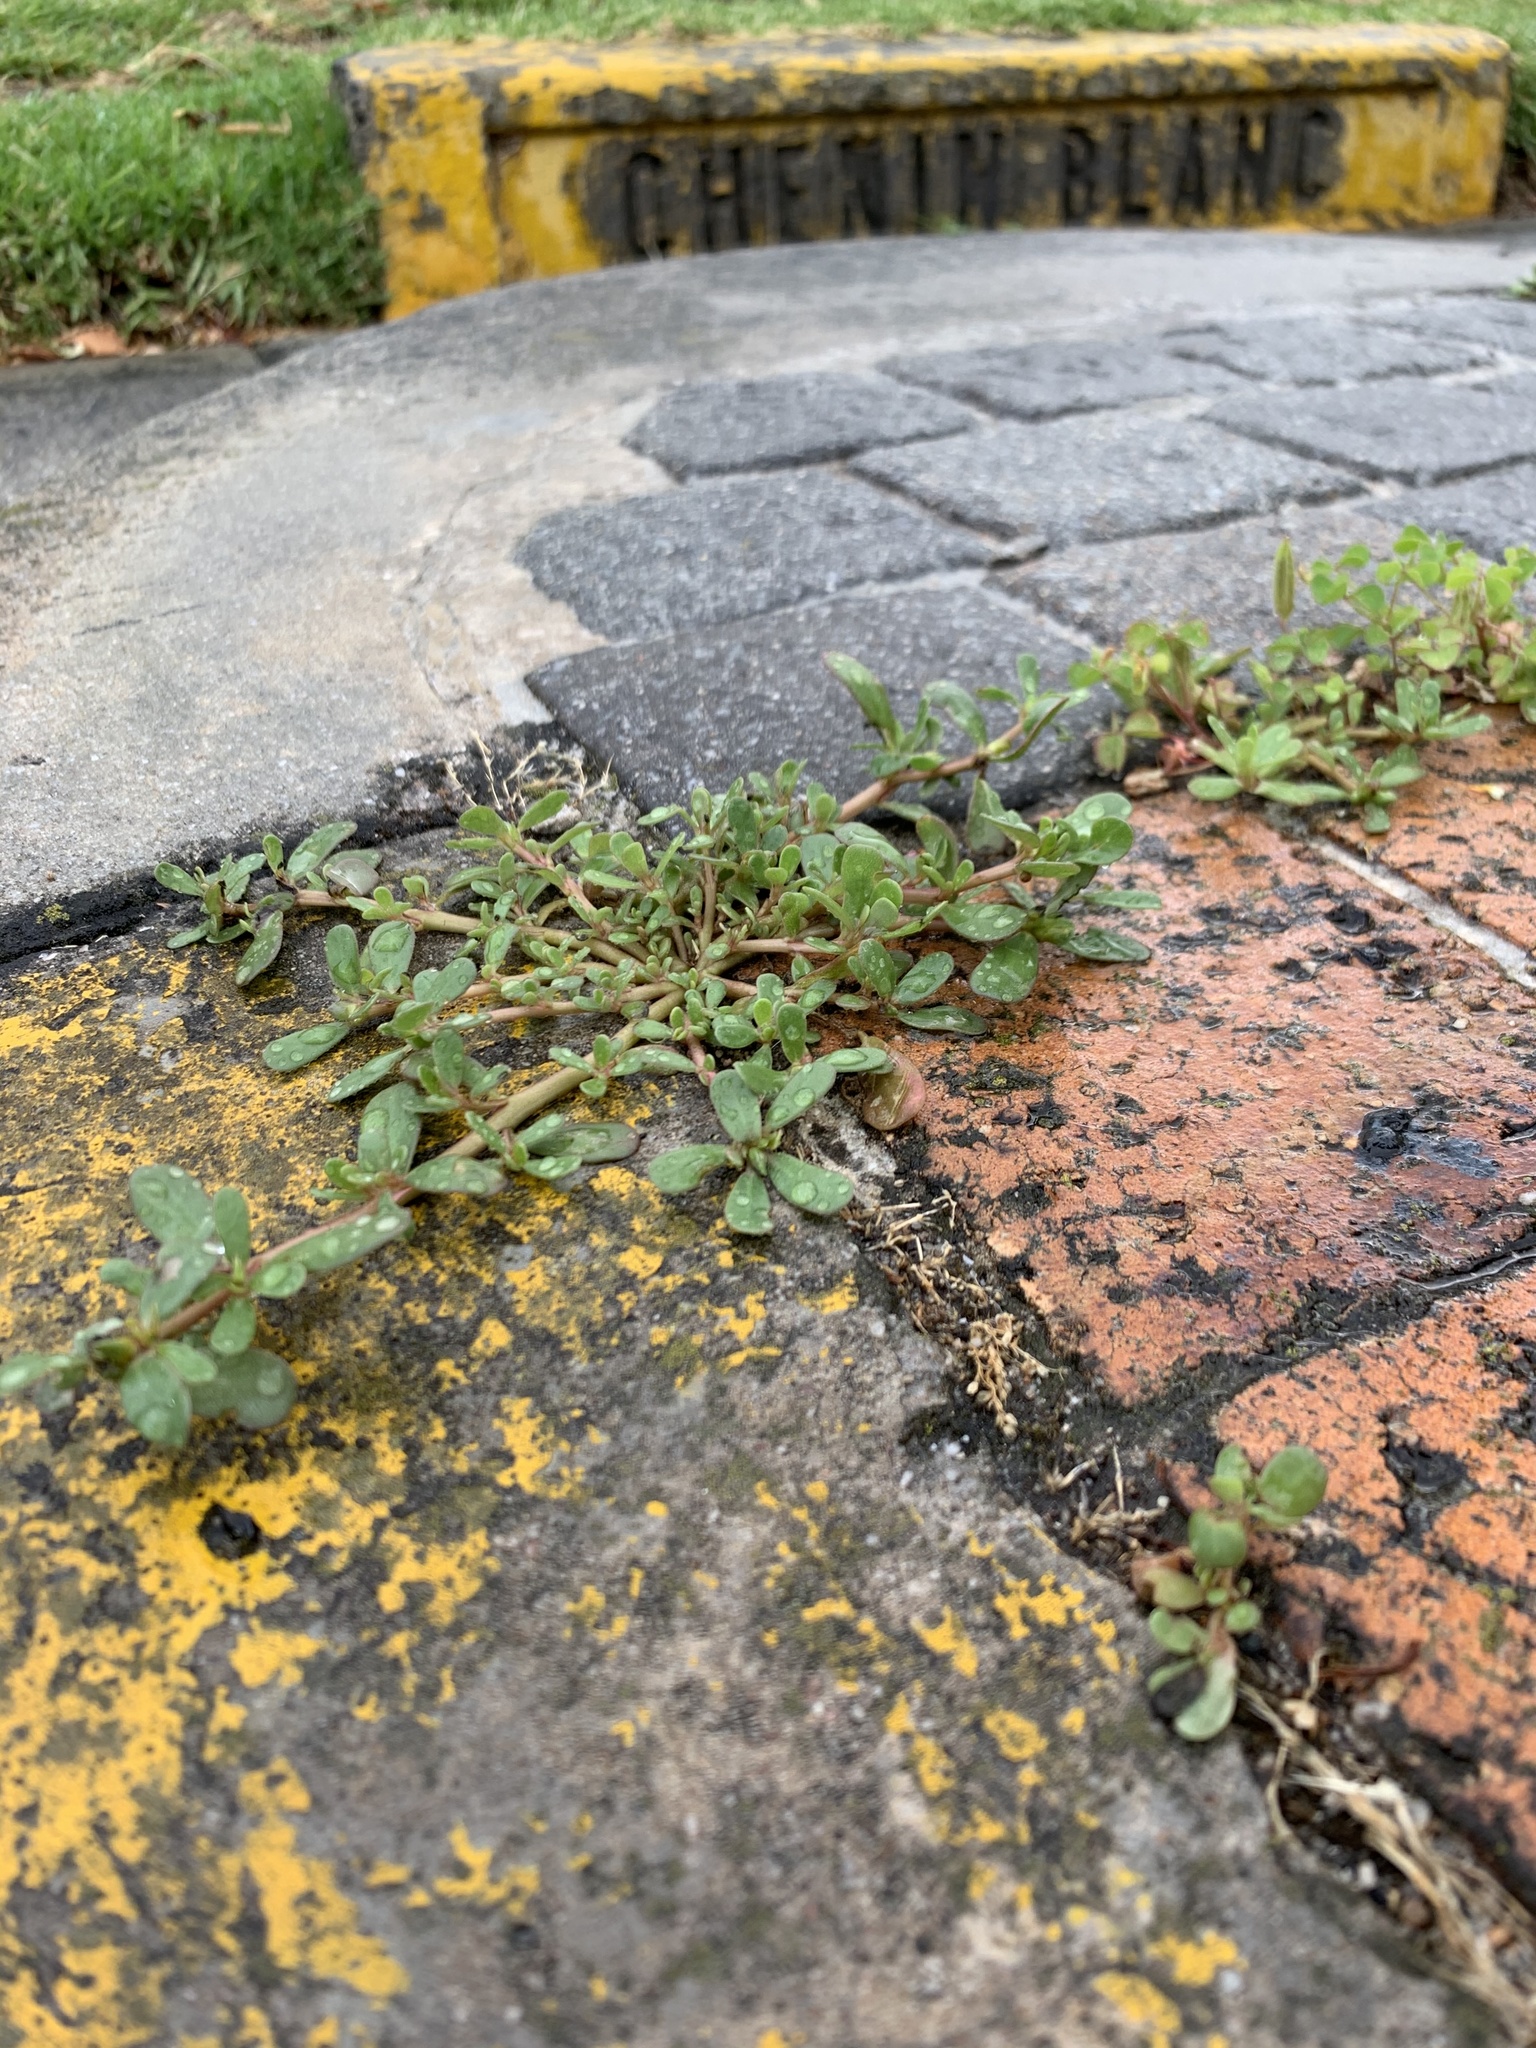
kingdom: Plantae
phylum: Tracheophyta
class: Magnoliopsida
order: Caryophyllales
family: Portulacaceae
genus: Portulaca
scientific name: Portulaca oleracea
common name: Common purslane
